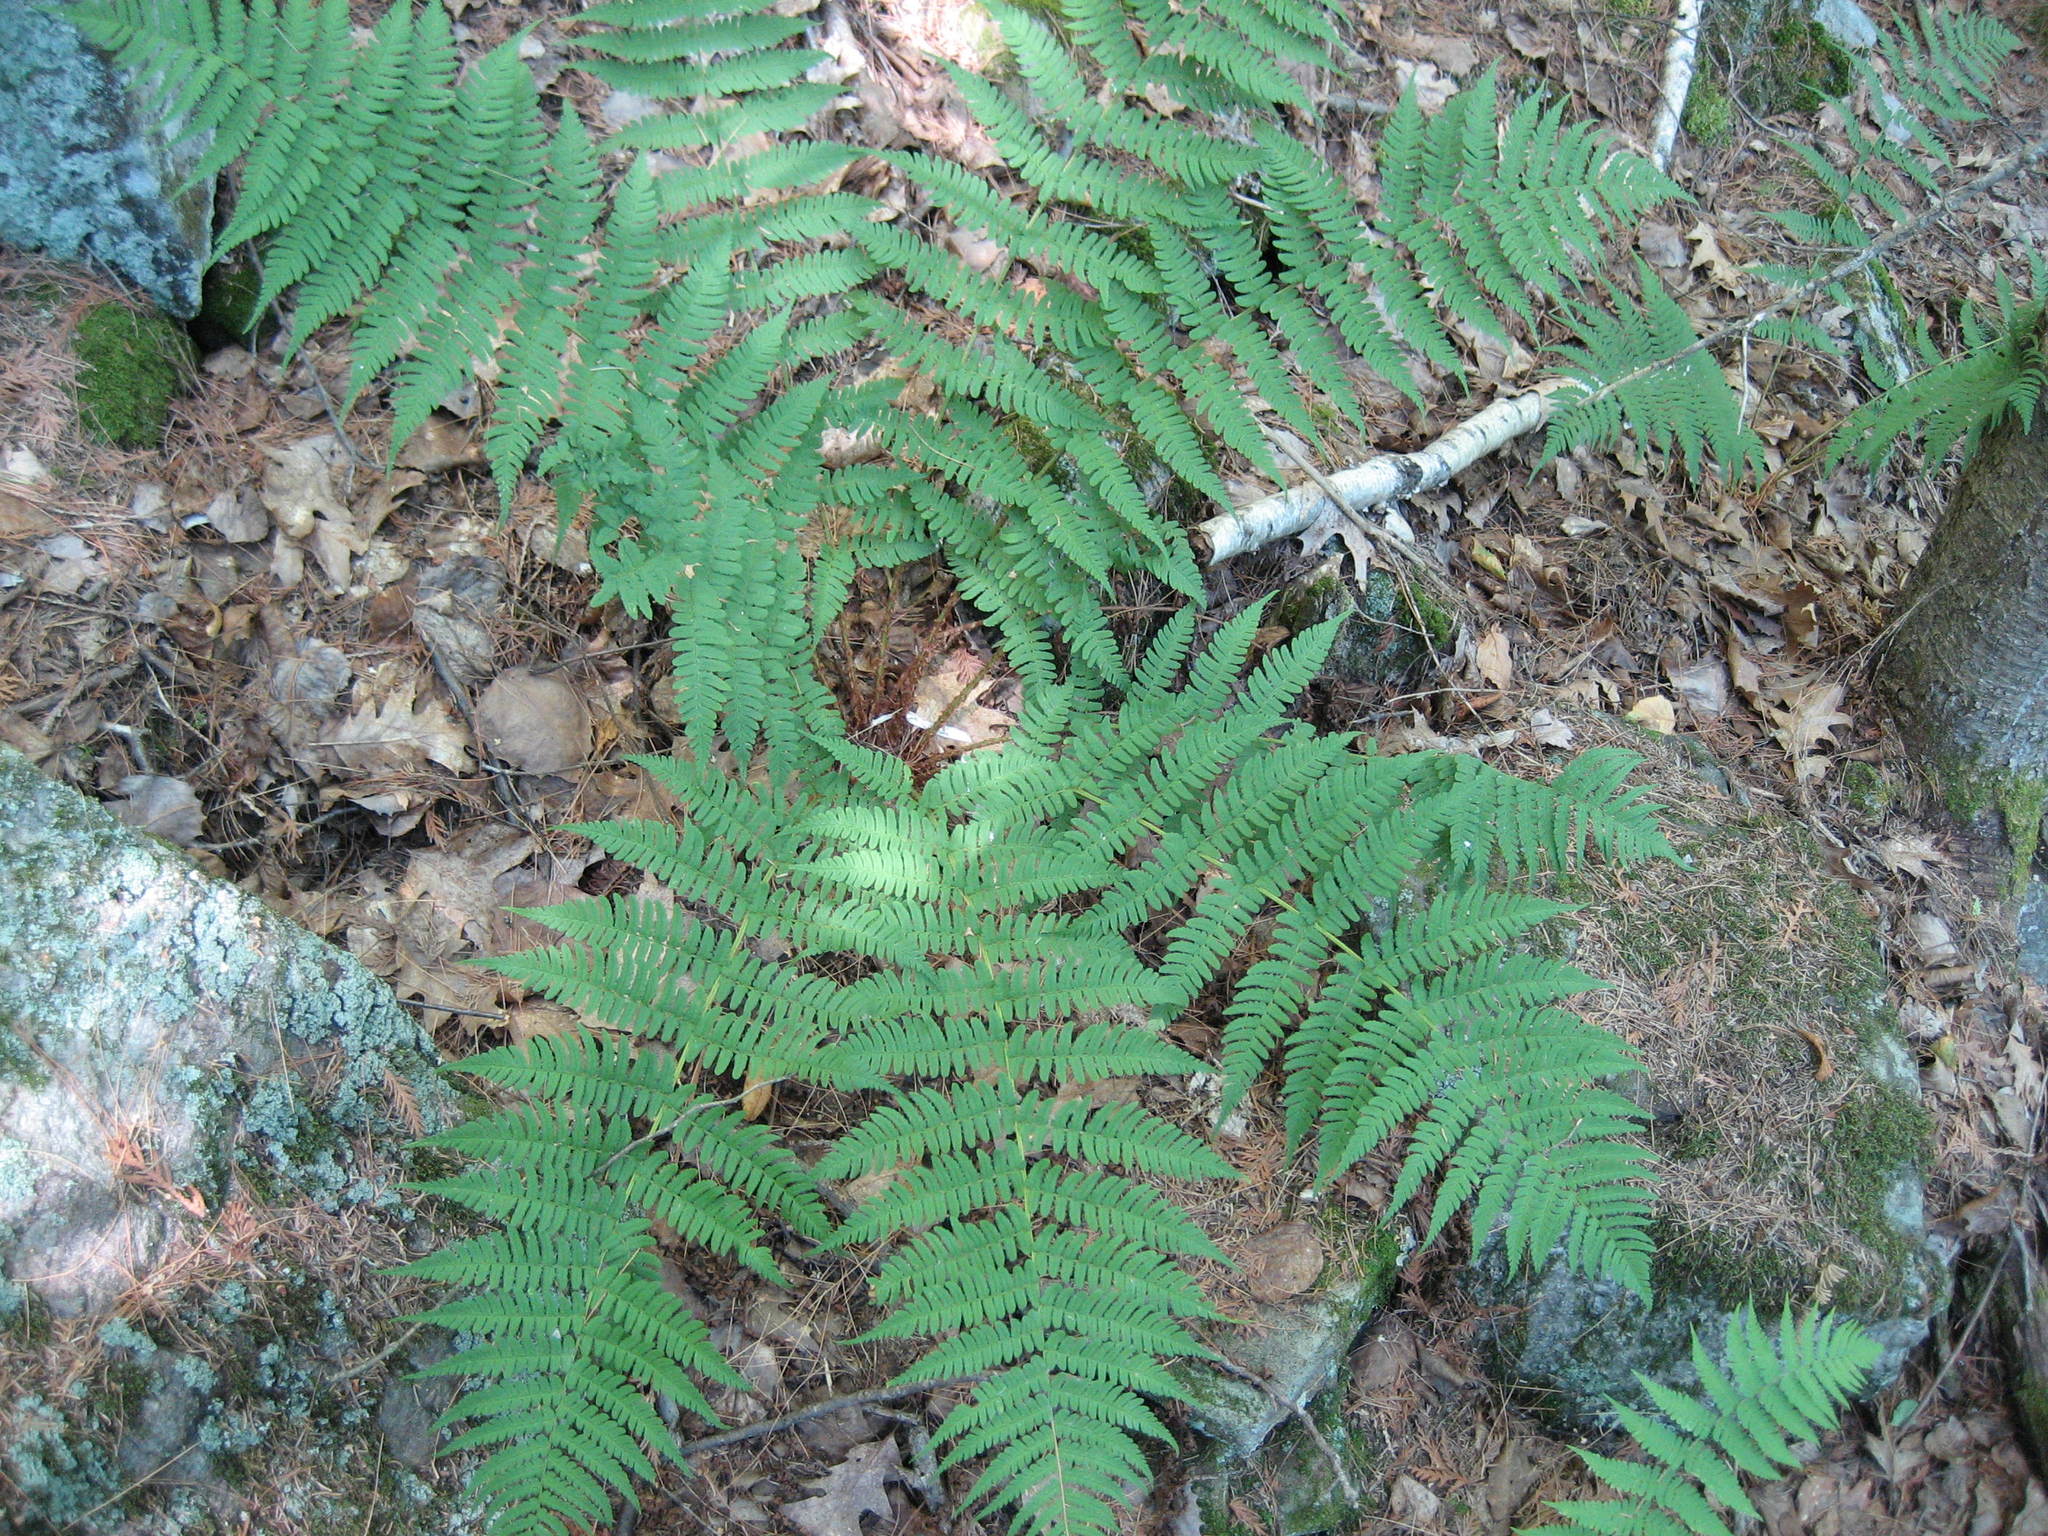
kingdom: Plantae
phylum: Tracheophyta
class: Polypodiopsida
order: Polypodiales
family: Dryopteridaceae
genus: Dryopteris
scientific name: Dryopteris marginalis
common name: Marginal wood fern
